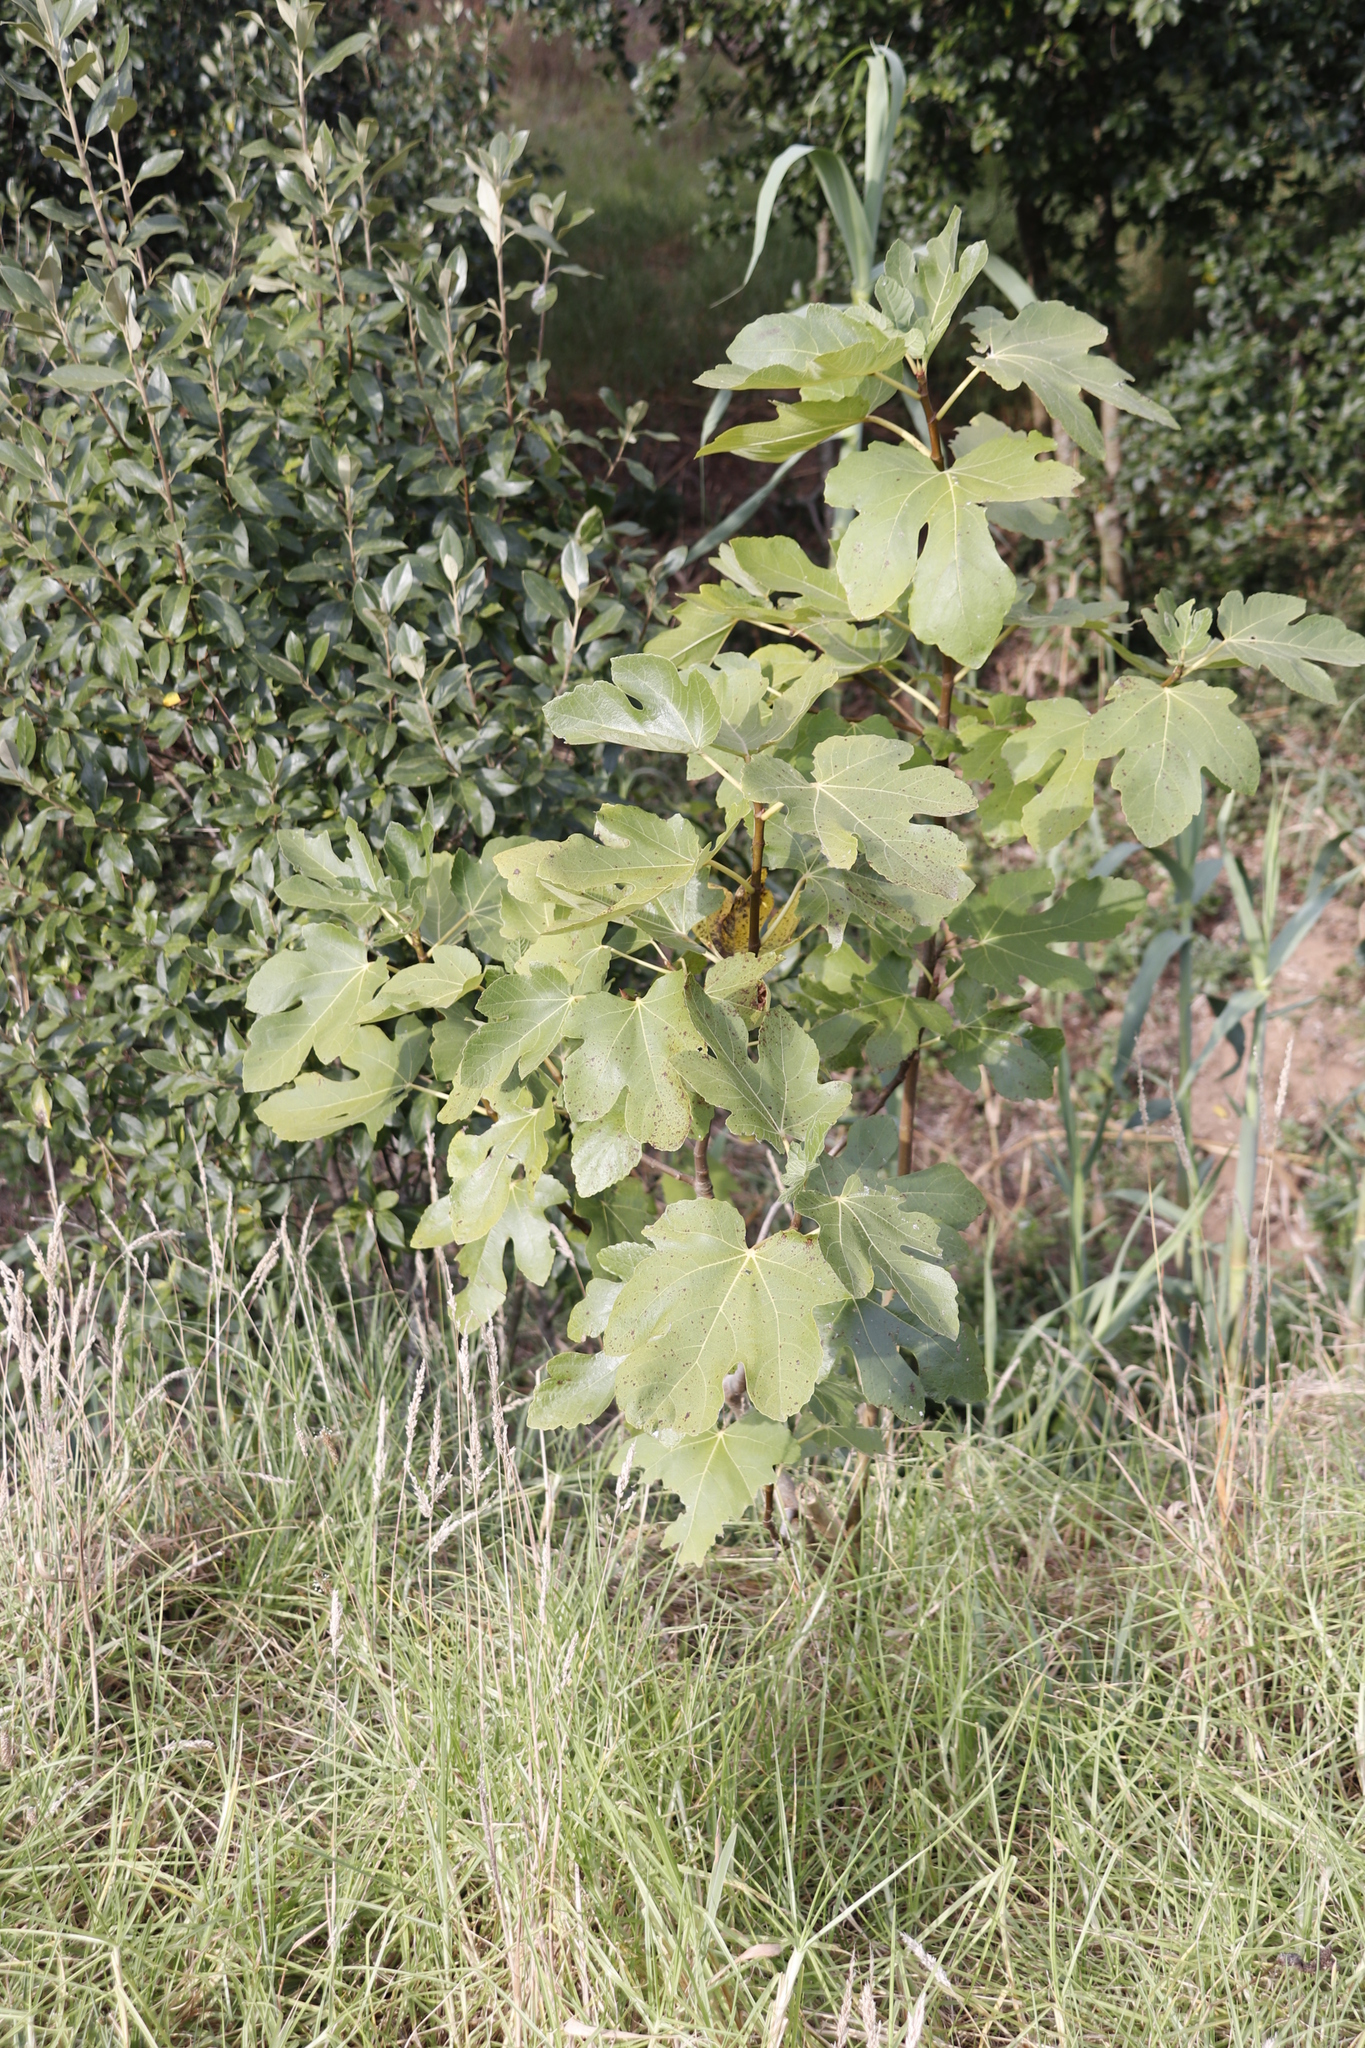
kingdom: Plantae
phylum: Tracheophyta
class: Magnoliopsida
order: Rosales
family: Moraceae
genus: Ficus
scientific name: Ficus carica
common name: Fig
